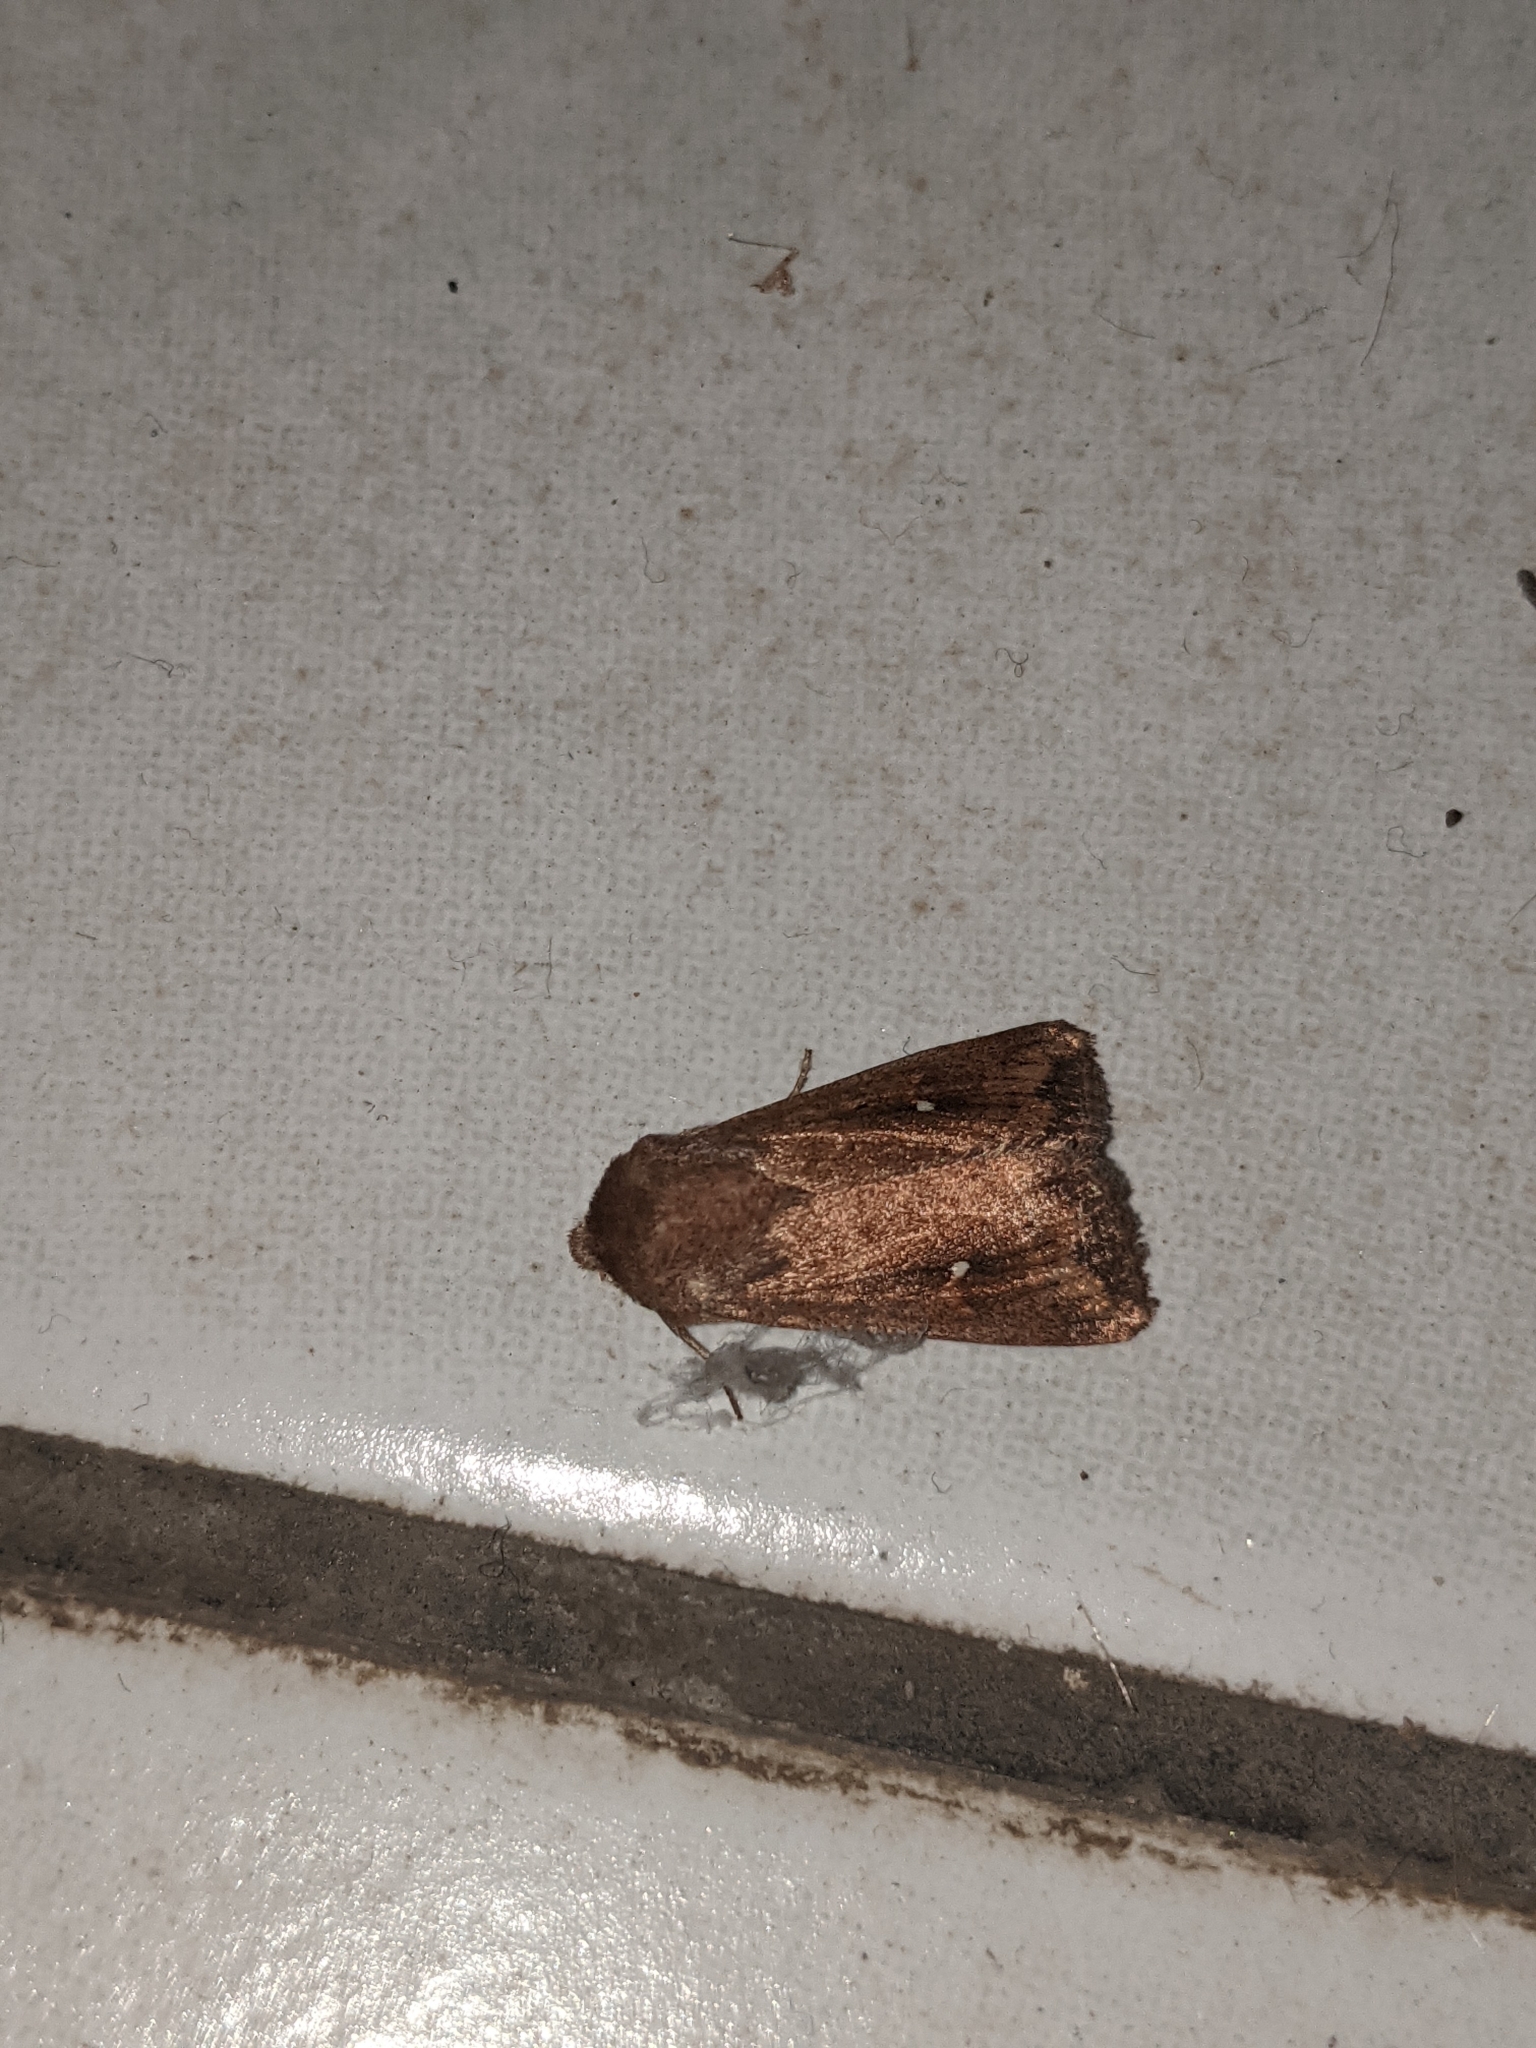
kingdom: Animalia
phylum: Arthropoda
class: Insecta
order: Lepidoptera
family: Noctuidae
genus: Mythimna
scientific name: Mythimna albipuncta
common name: White-point
